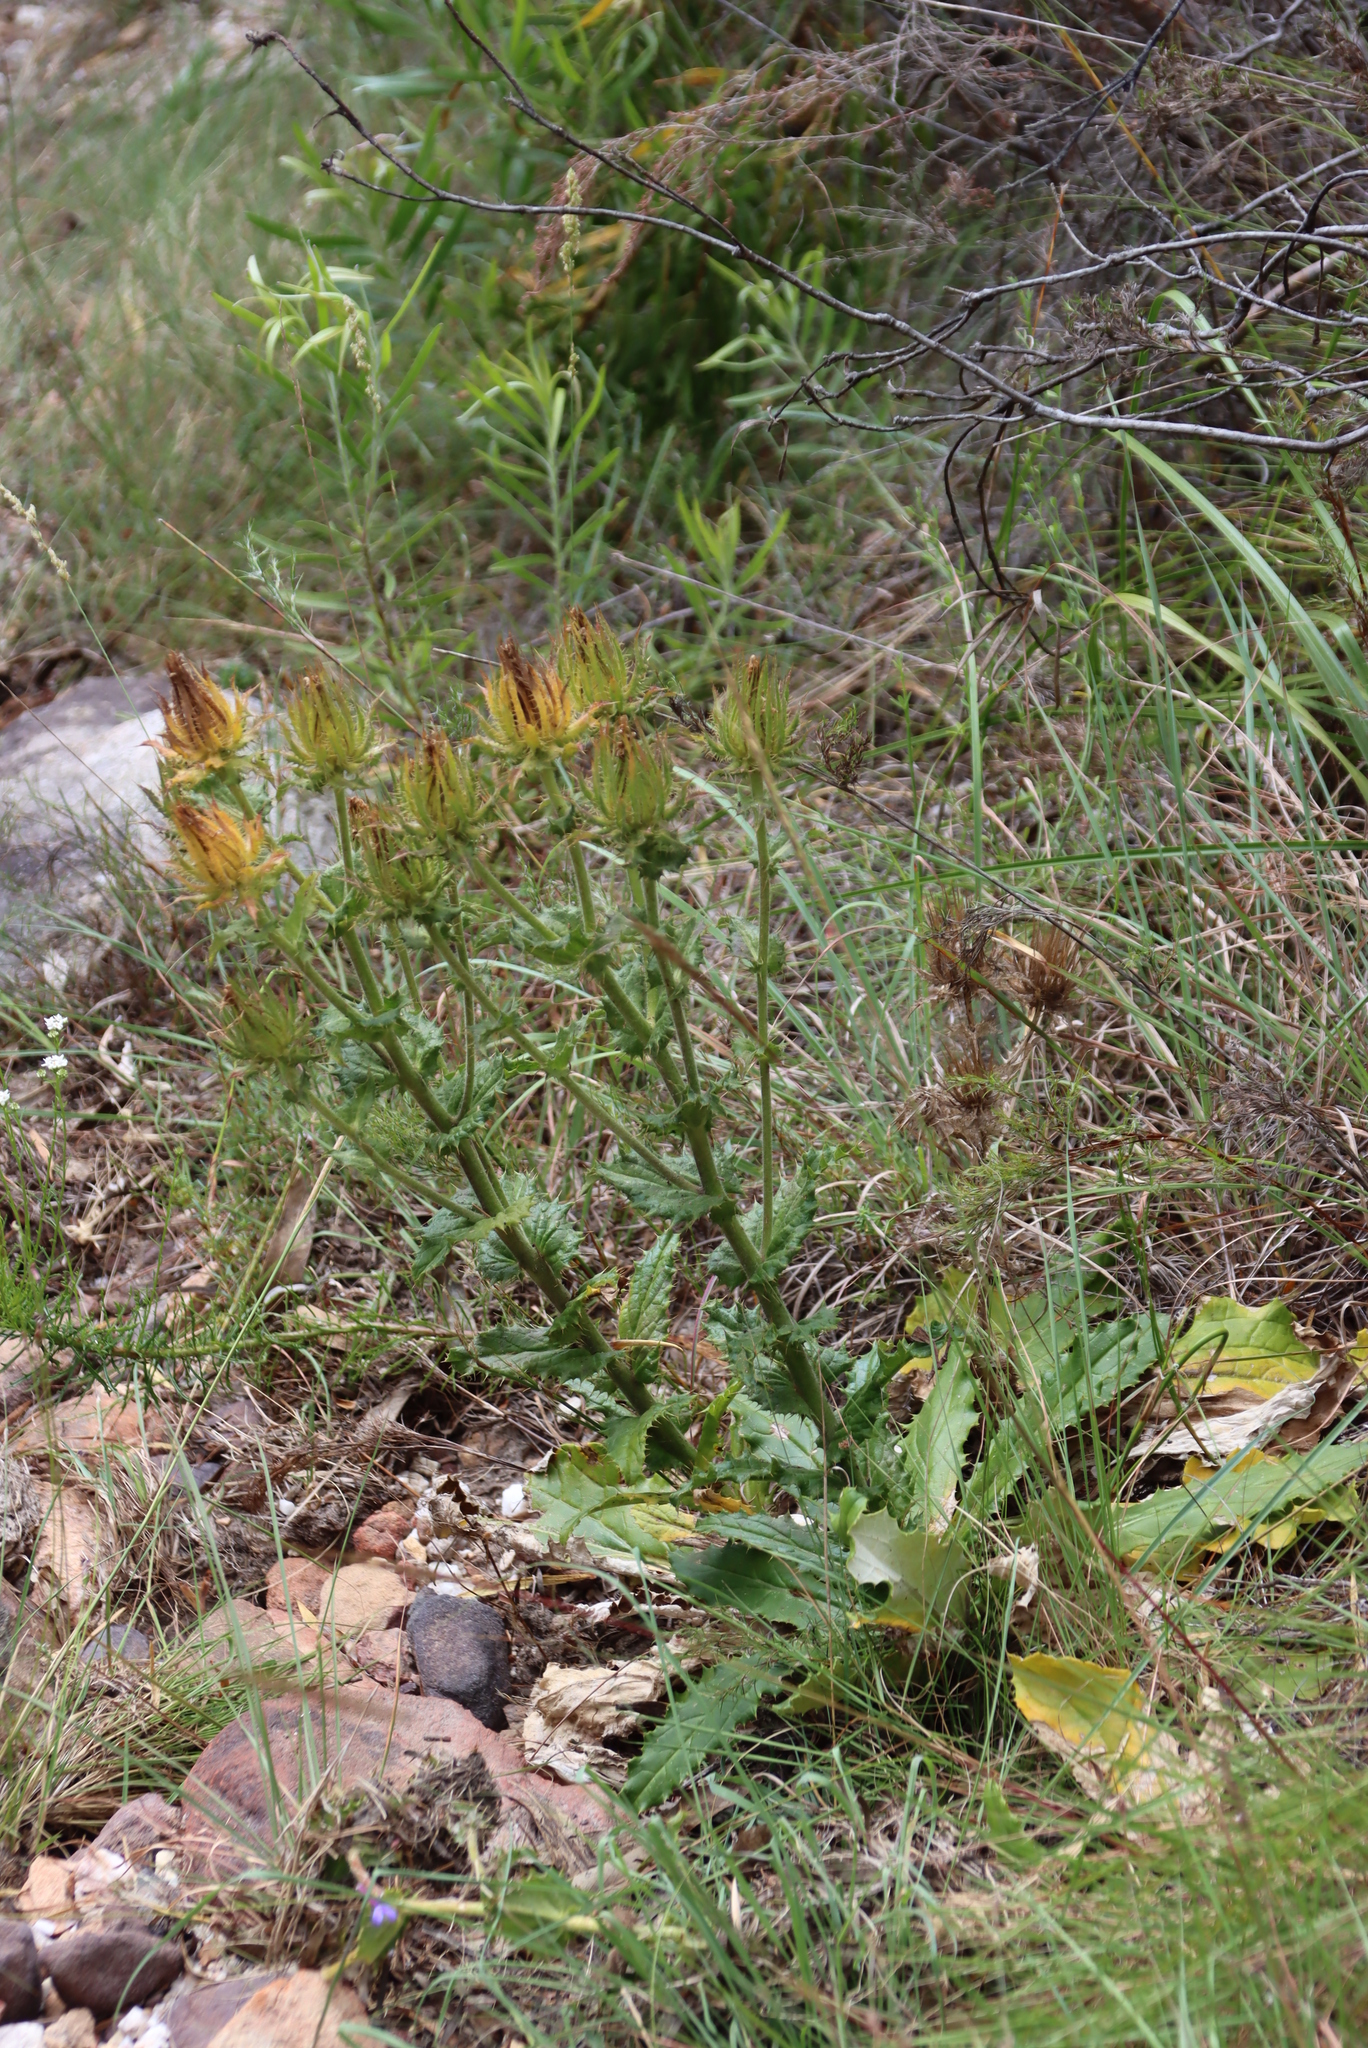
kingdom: Plantae
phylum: Tracheophyta
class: Magnoliopsida
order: Asterales
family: Asteraceae
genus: Berkheya
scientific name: Berkheya carlinoides
